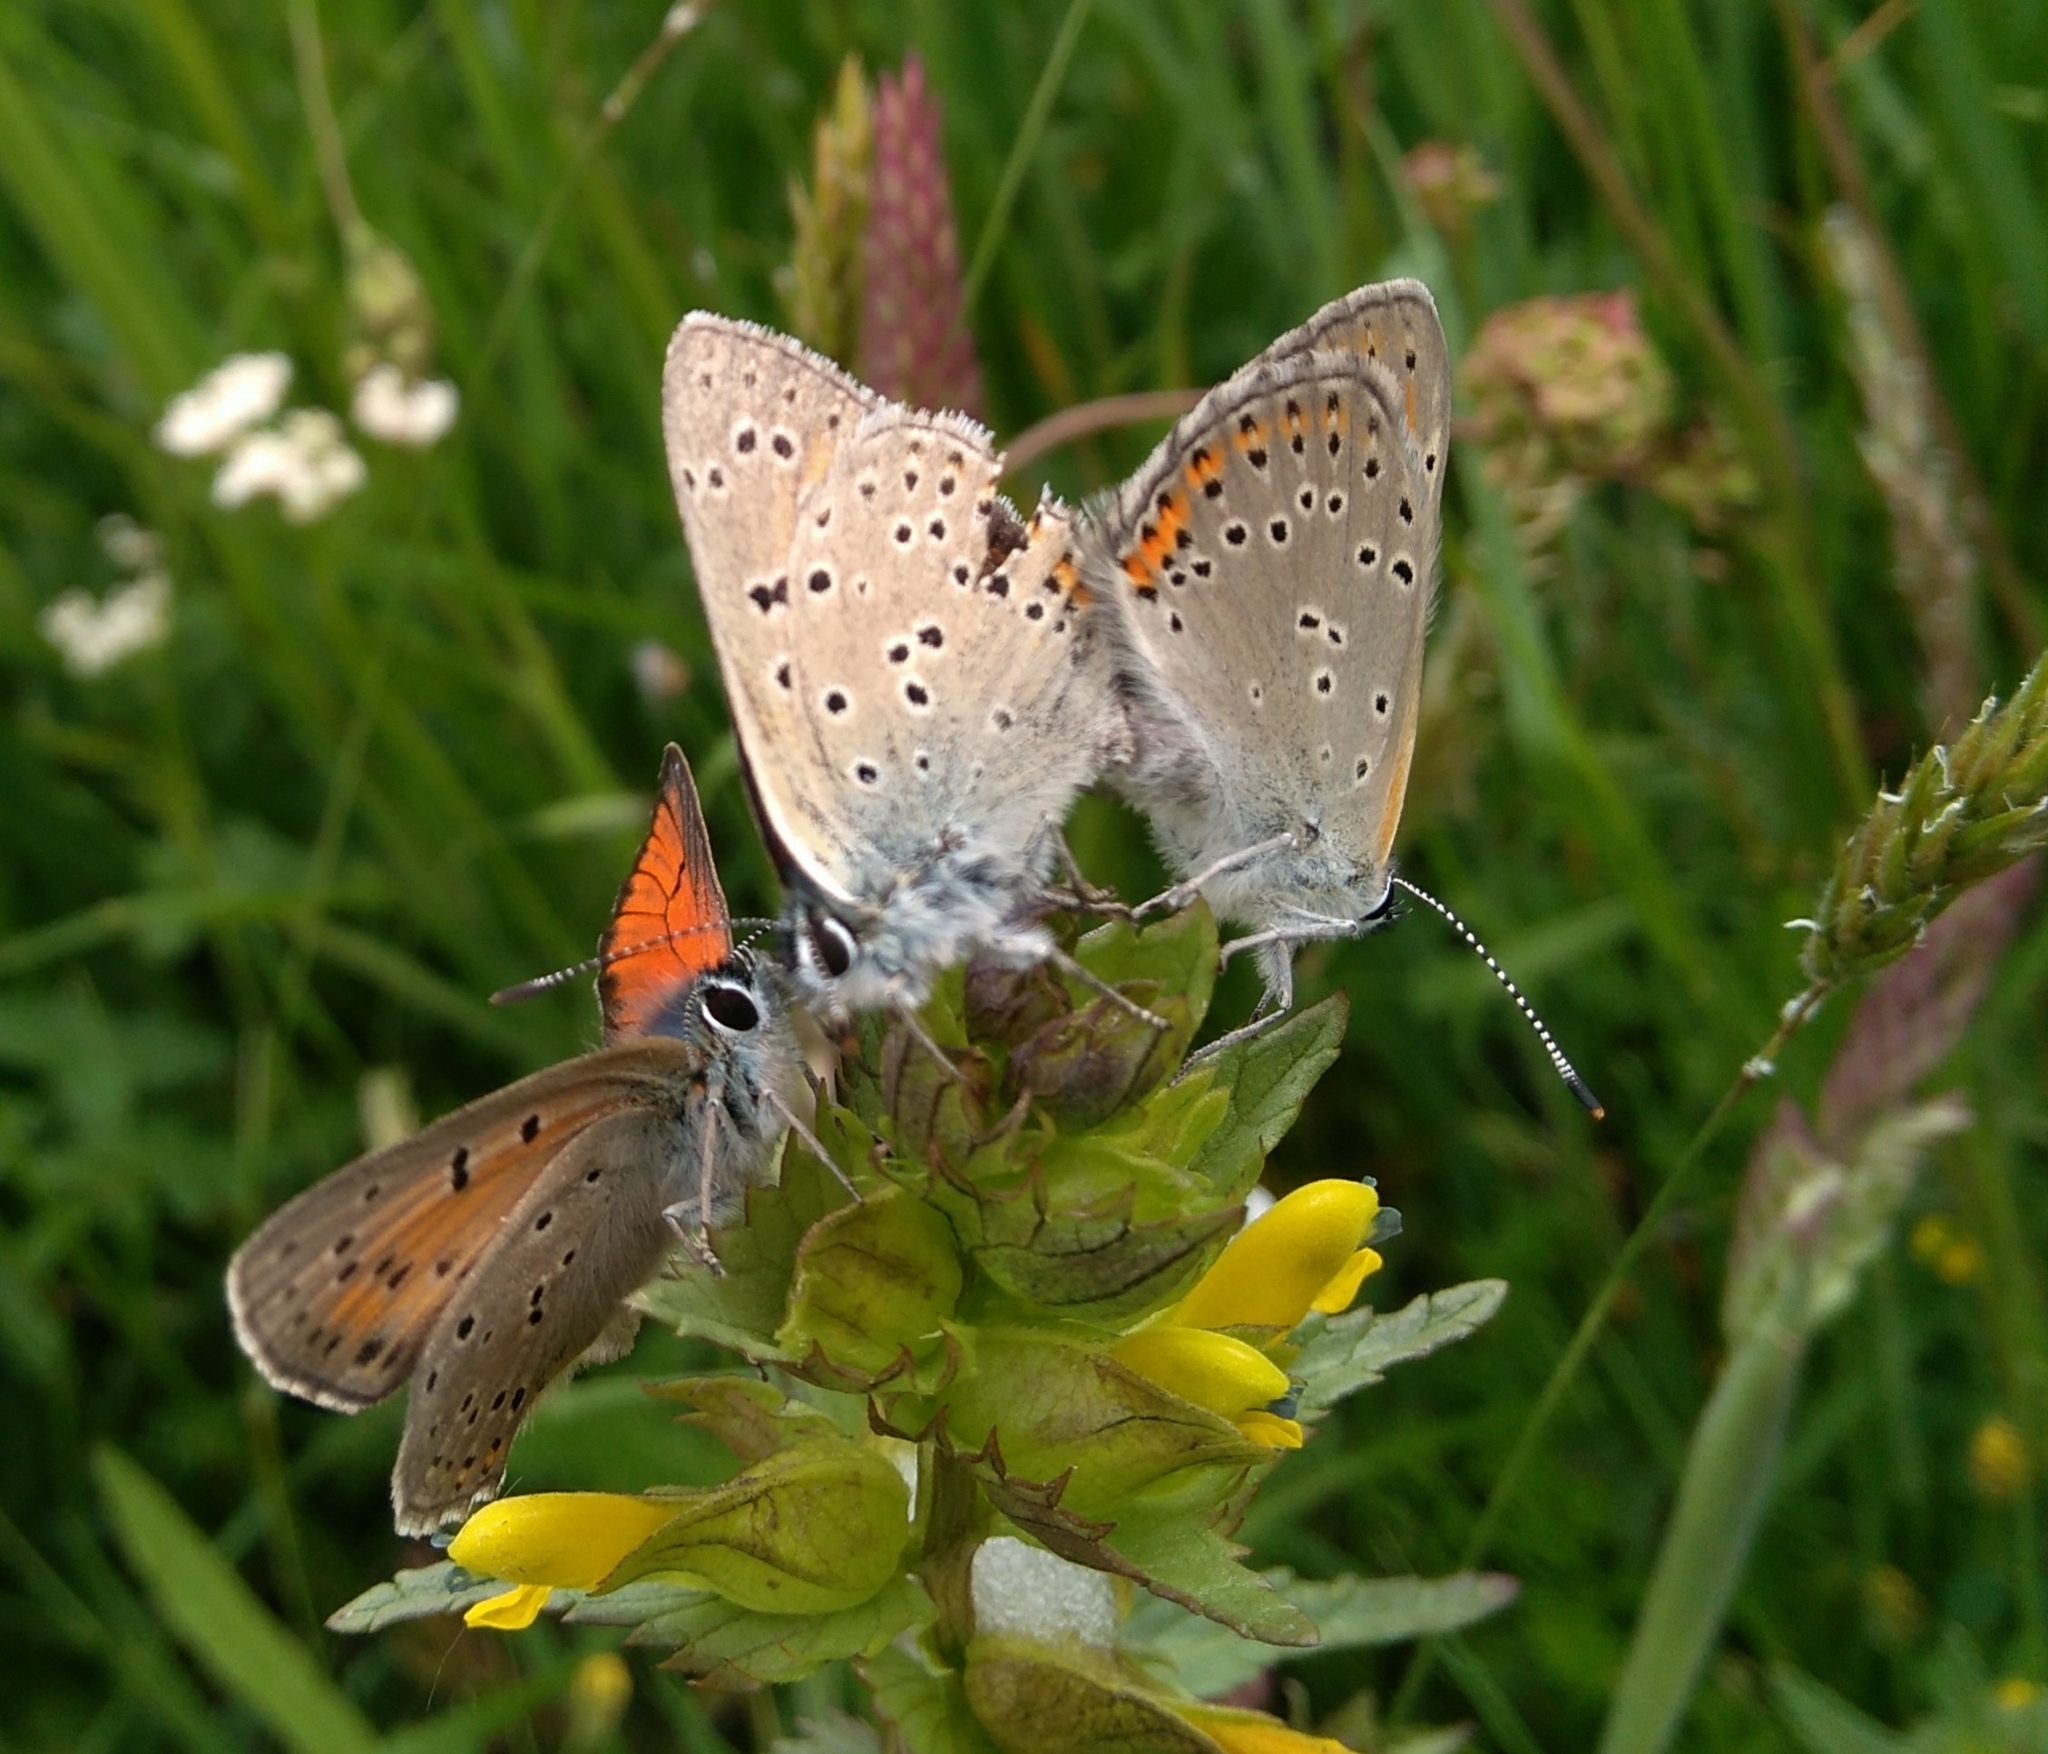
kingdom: Animalia
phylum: Arthropoda
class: Insecta
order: Lepidoptera
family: Lycaenidae
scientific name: Lycaenidae
